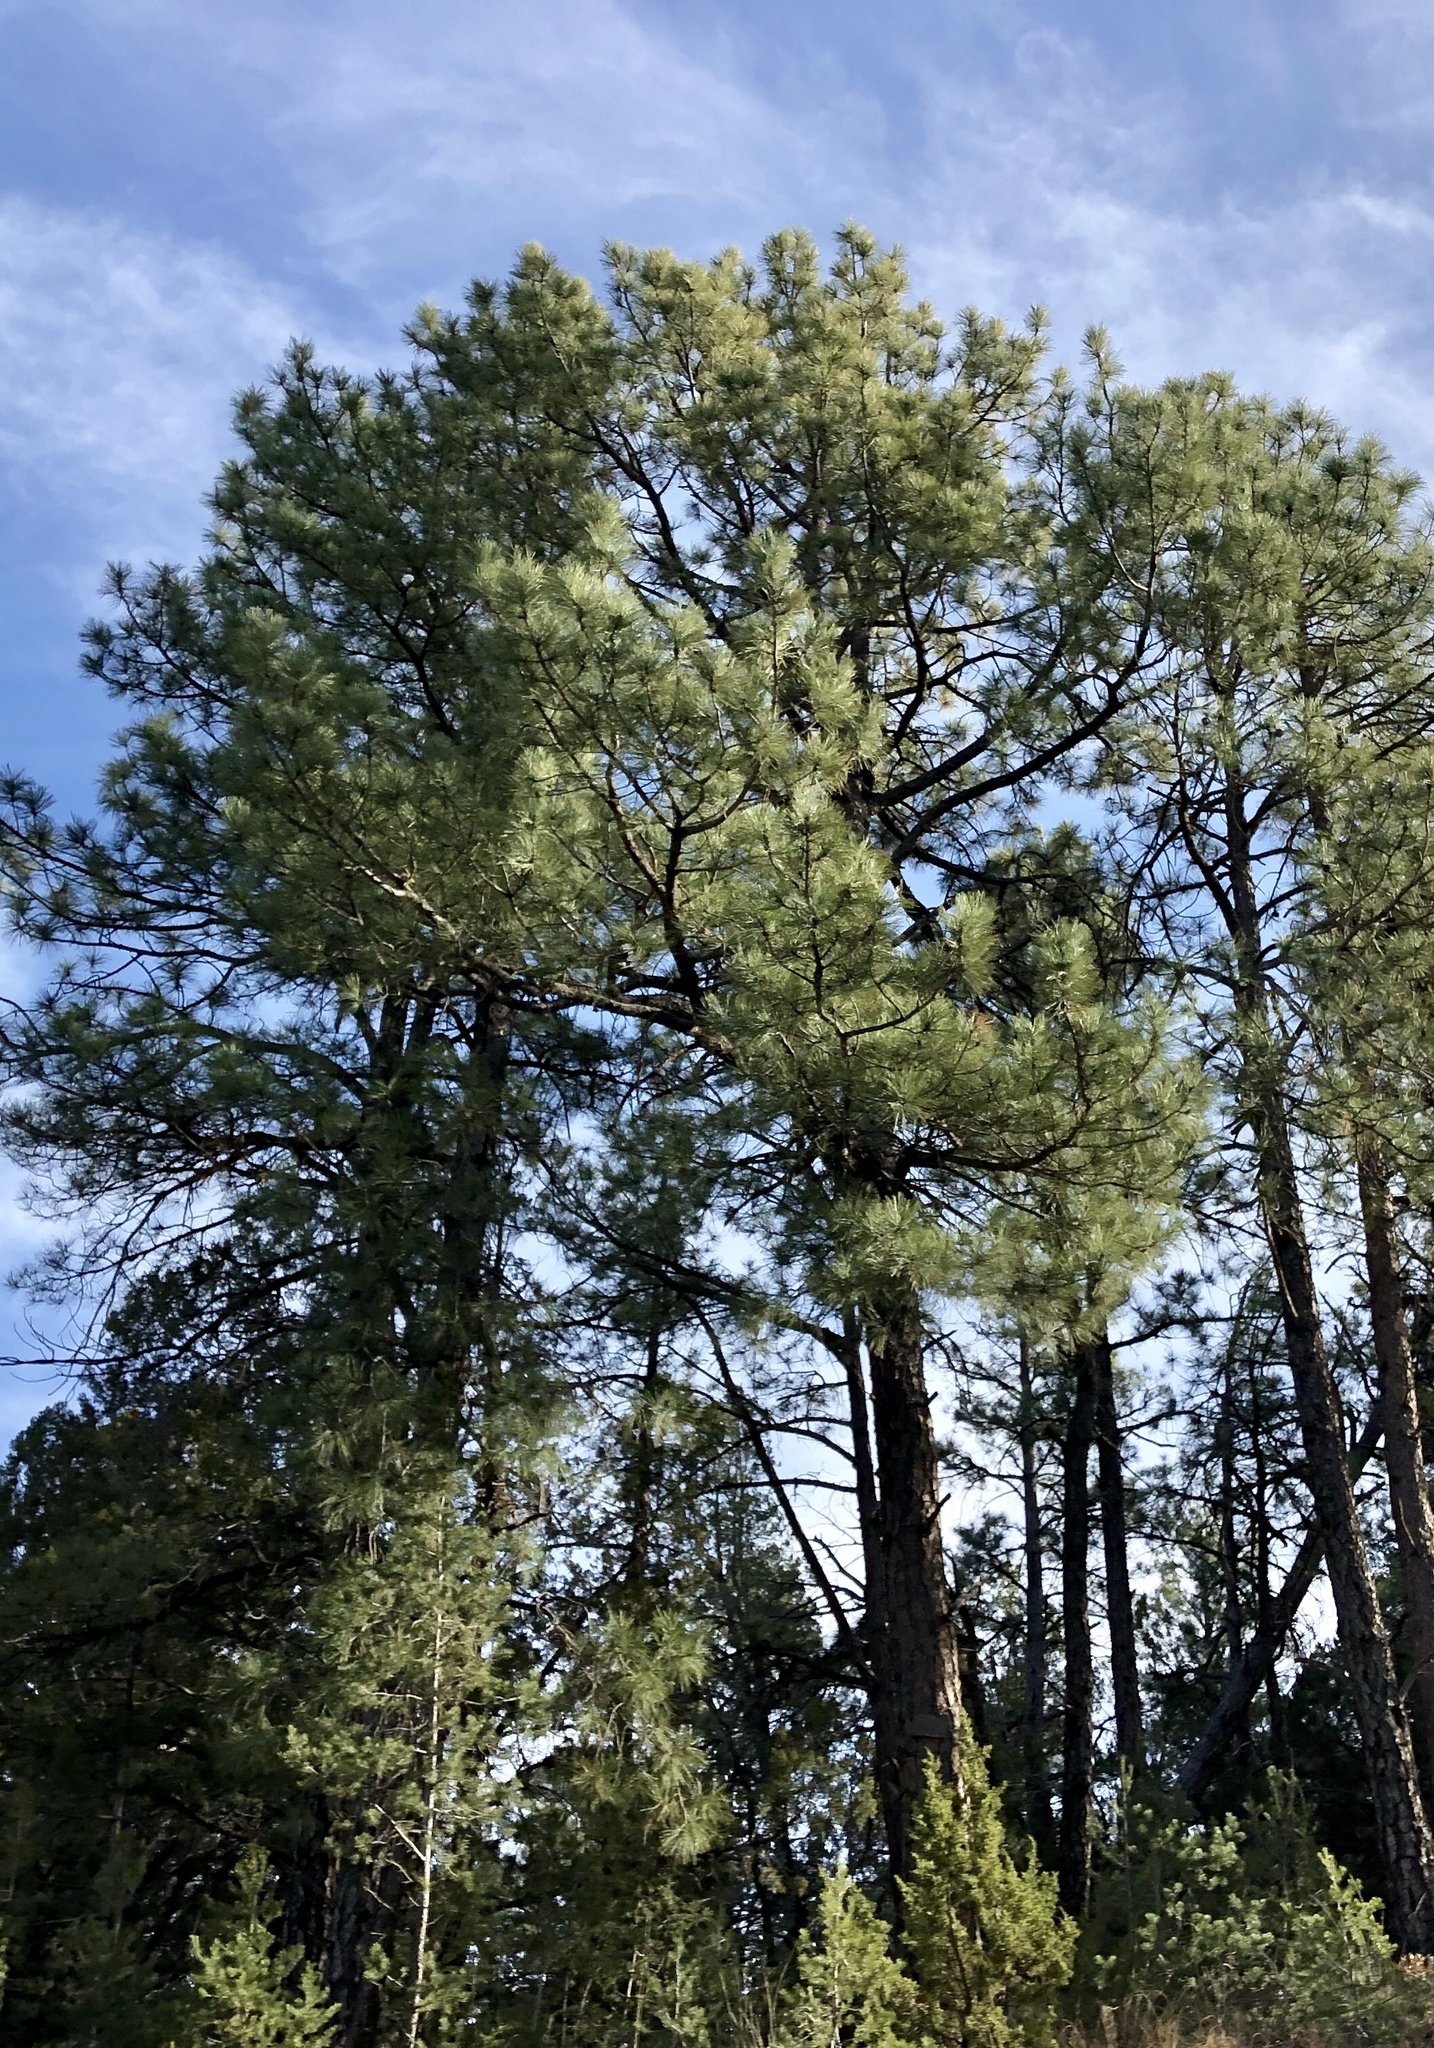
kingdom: Plantae
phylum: Tracheophyta
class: Pinopsida
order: Pinales
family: Pinaceae
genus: Pinus
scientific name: Pinus ponderosa
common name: Western yellow-pine
